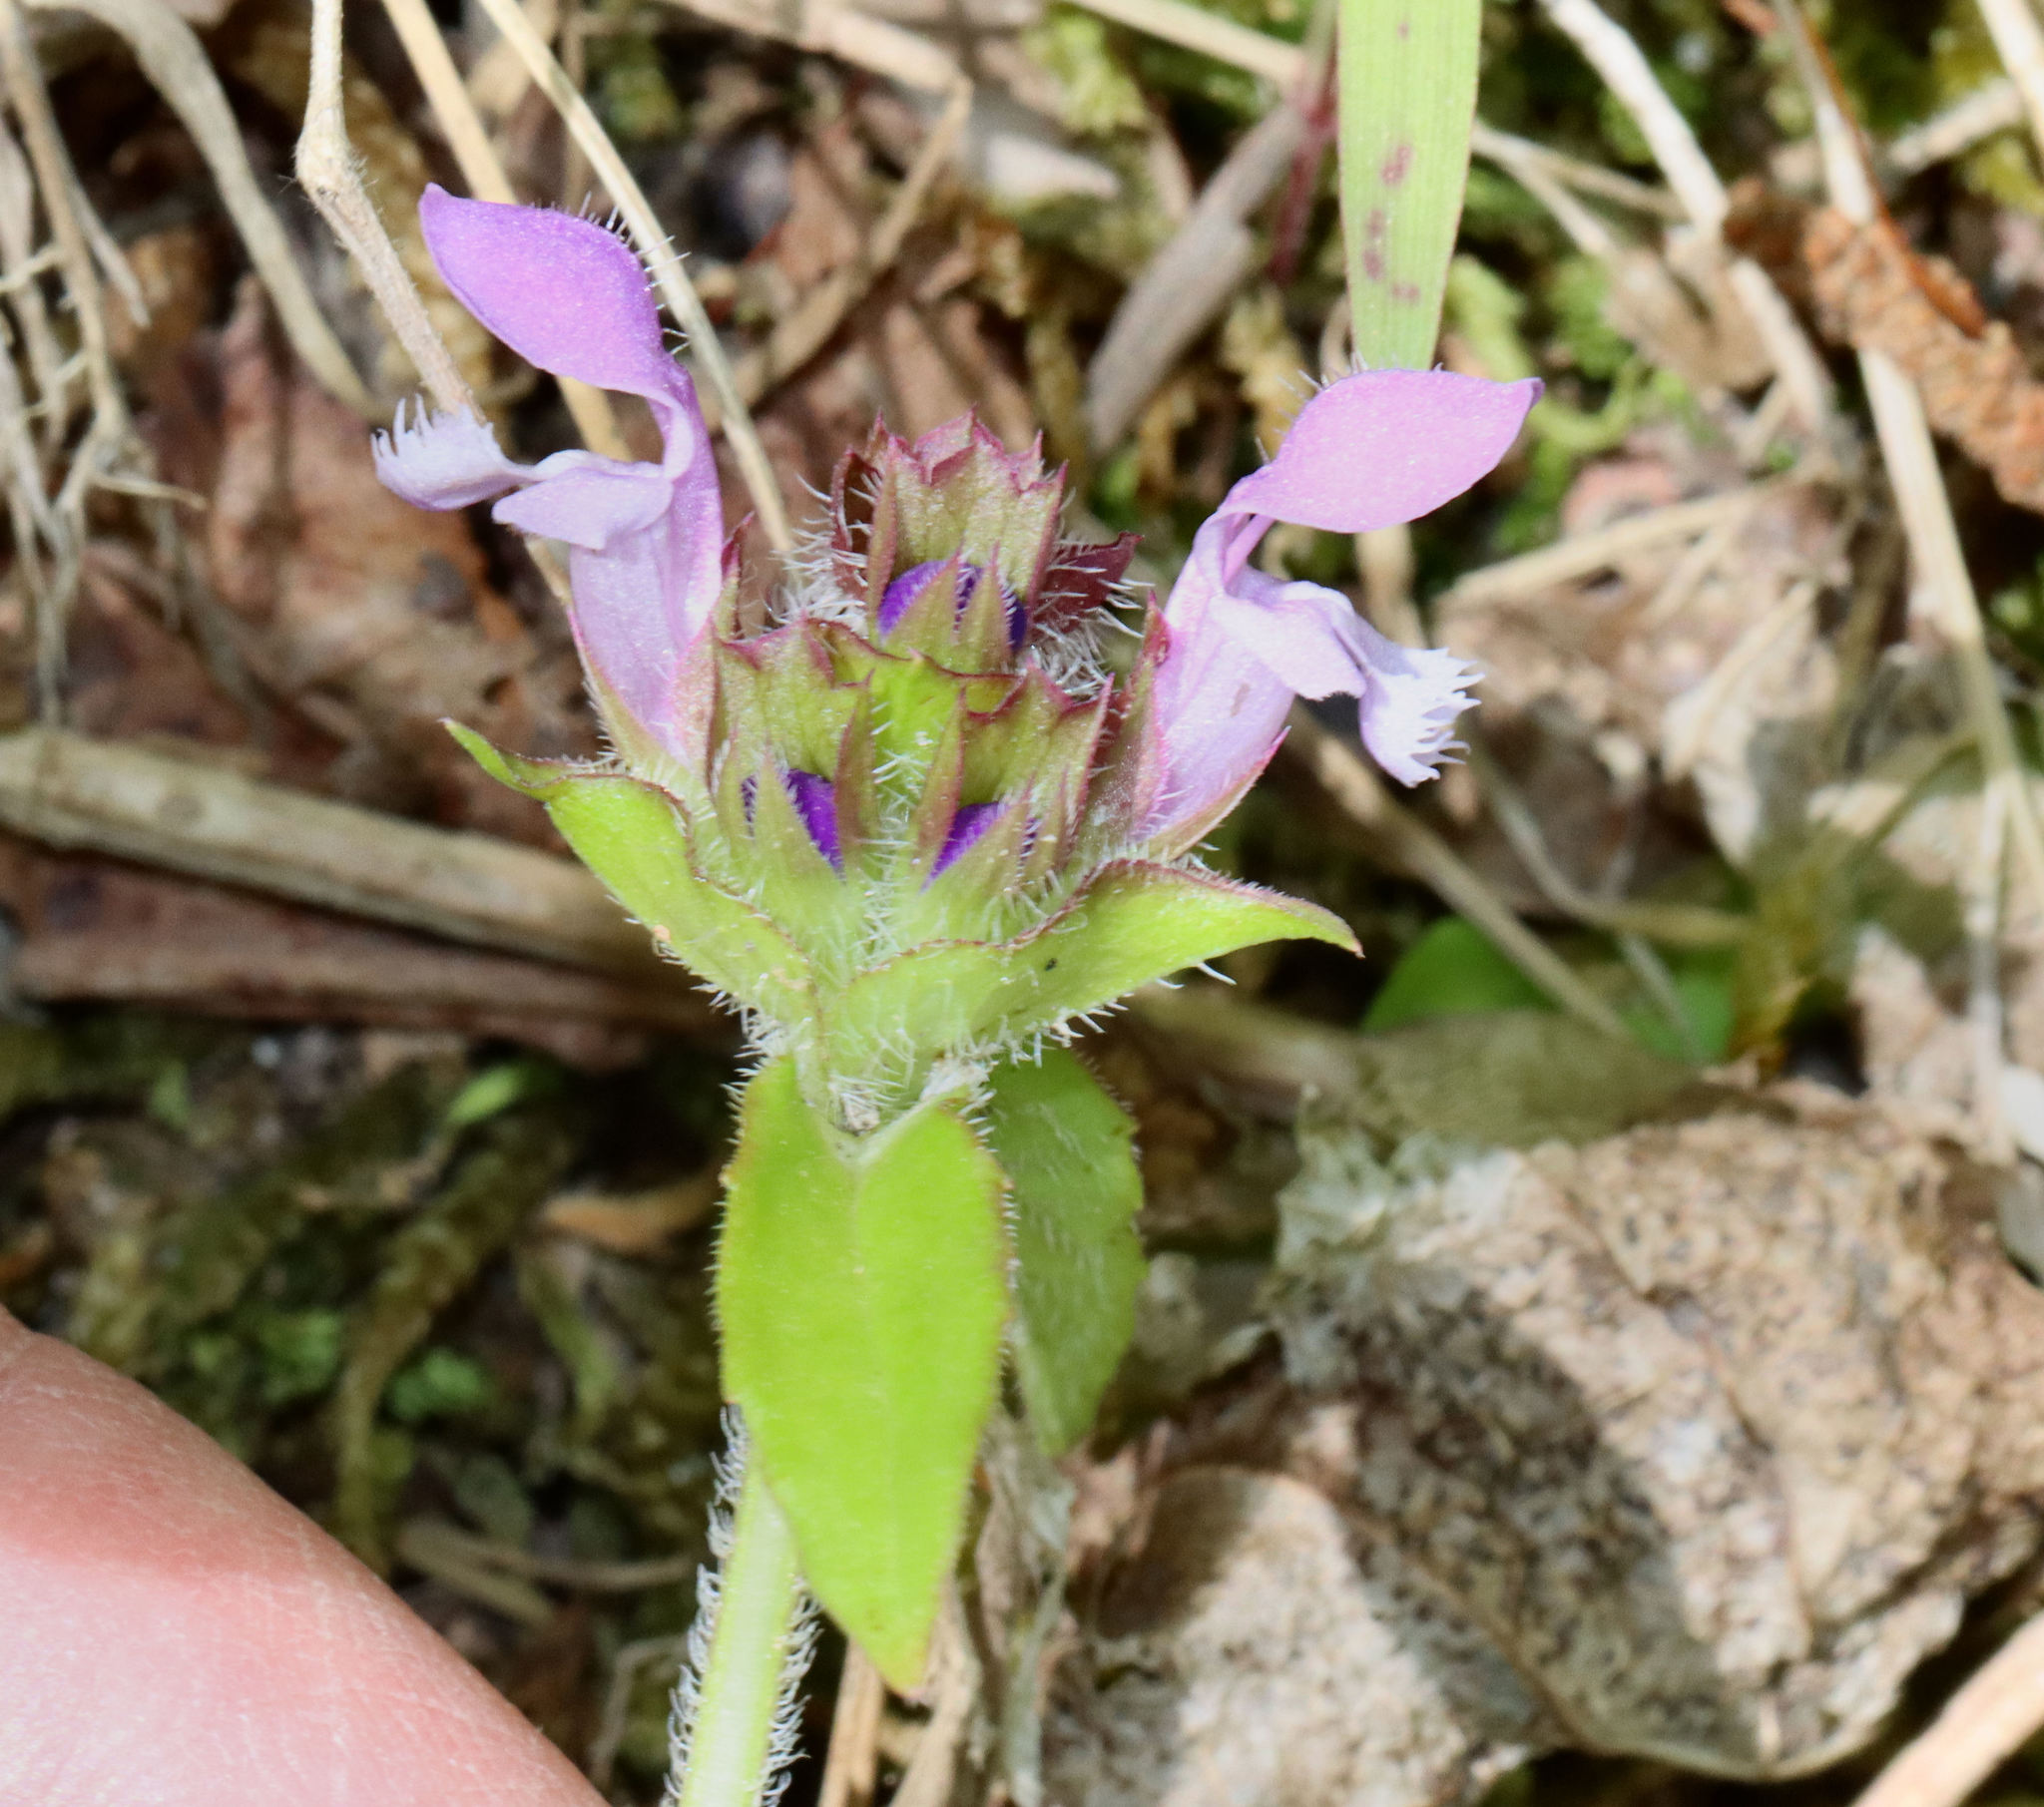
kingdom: Plantae
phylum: Tracheophyta
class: Magnoliopsida
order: Lamiales
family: Lamiaceae
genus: Prunella
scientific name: Prunella vulgaris
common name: Heal-all
